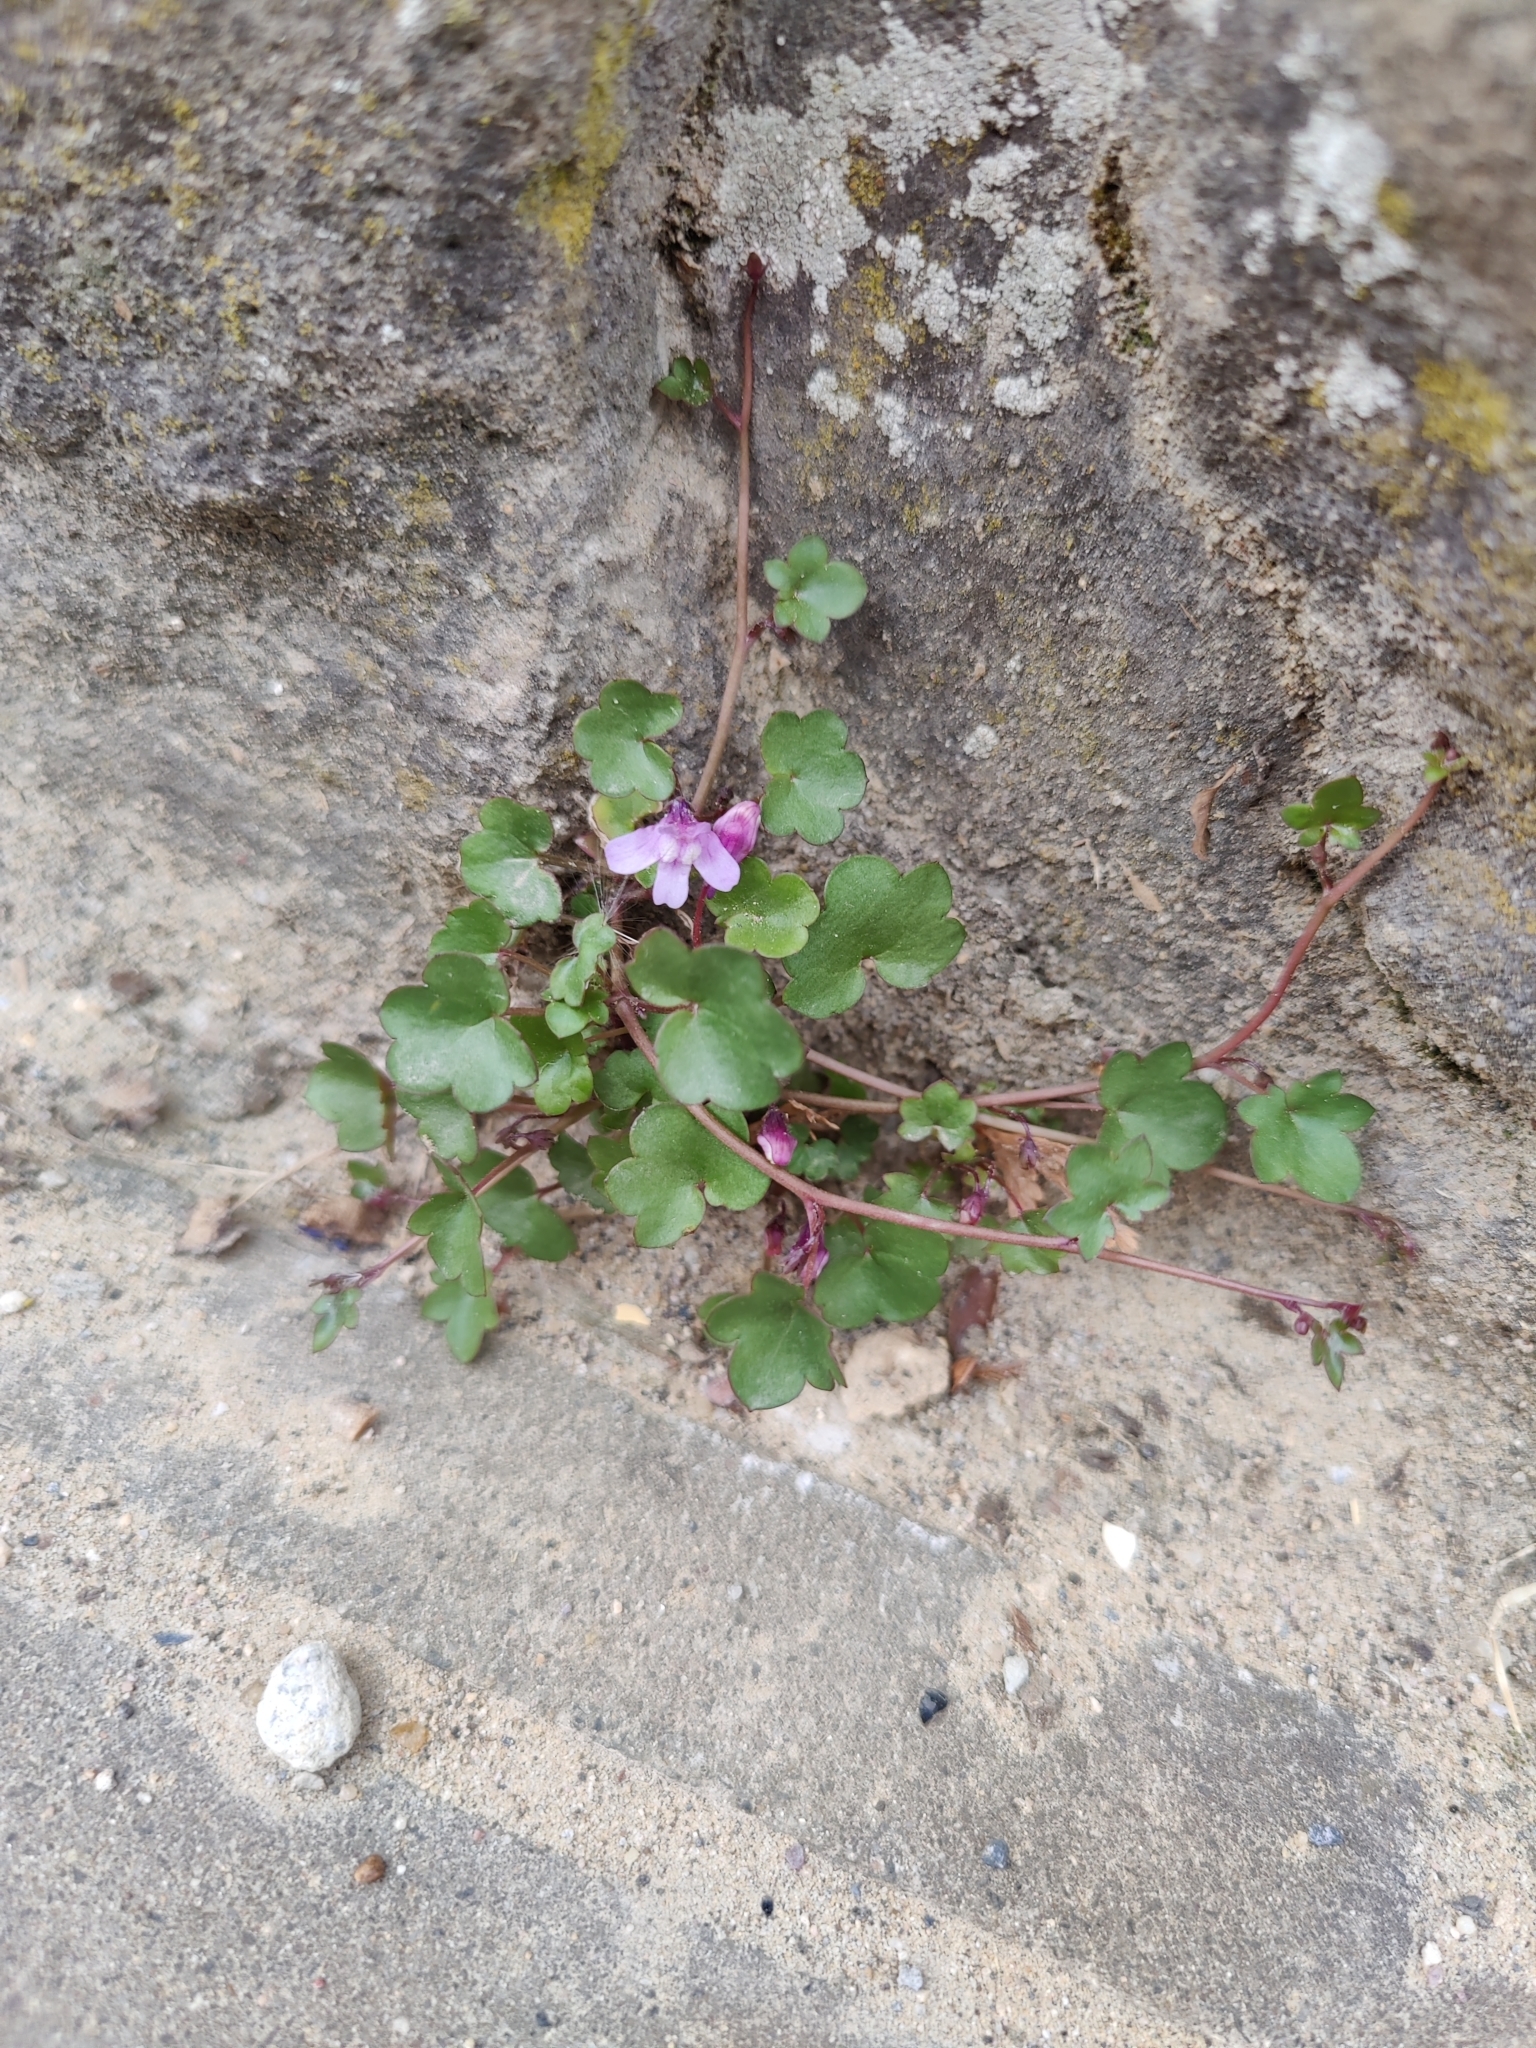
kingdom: Plantae
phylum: Tracheophyta
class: Magnoliopsida
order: Lamiales
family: Plantaginaceae
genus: Cymbalaria
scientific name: Cymbalaria muralis
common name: Ivy-leaved toadflax
